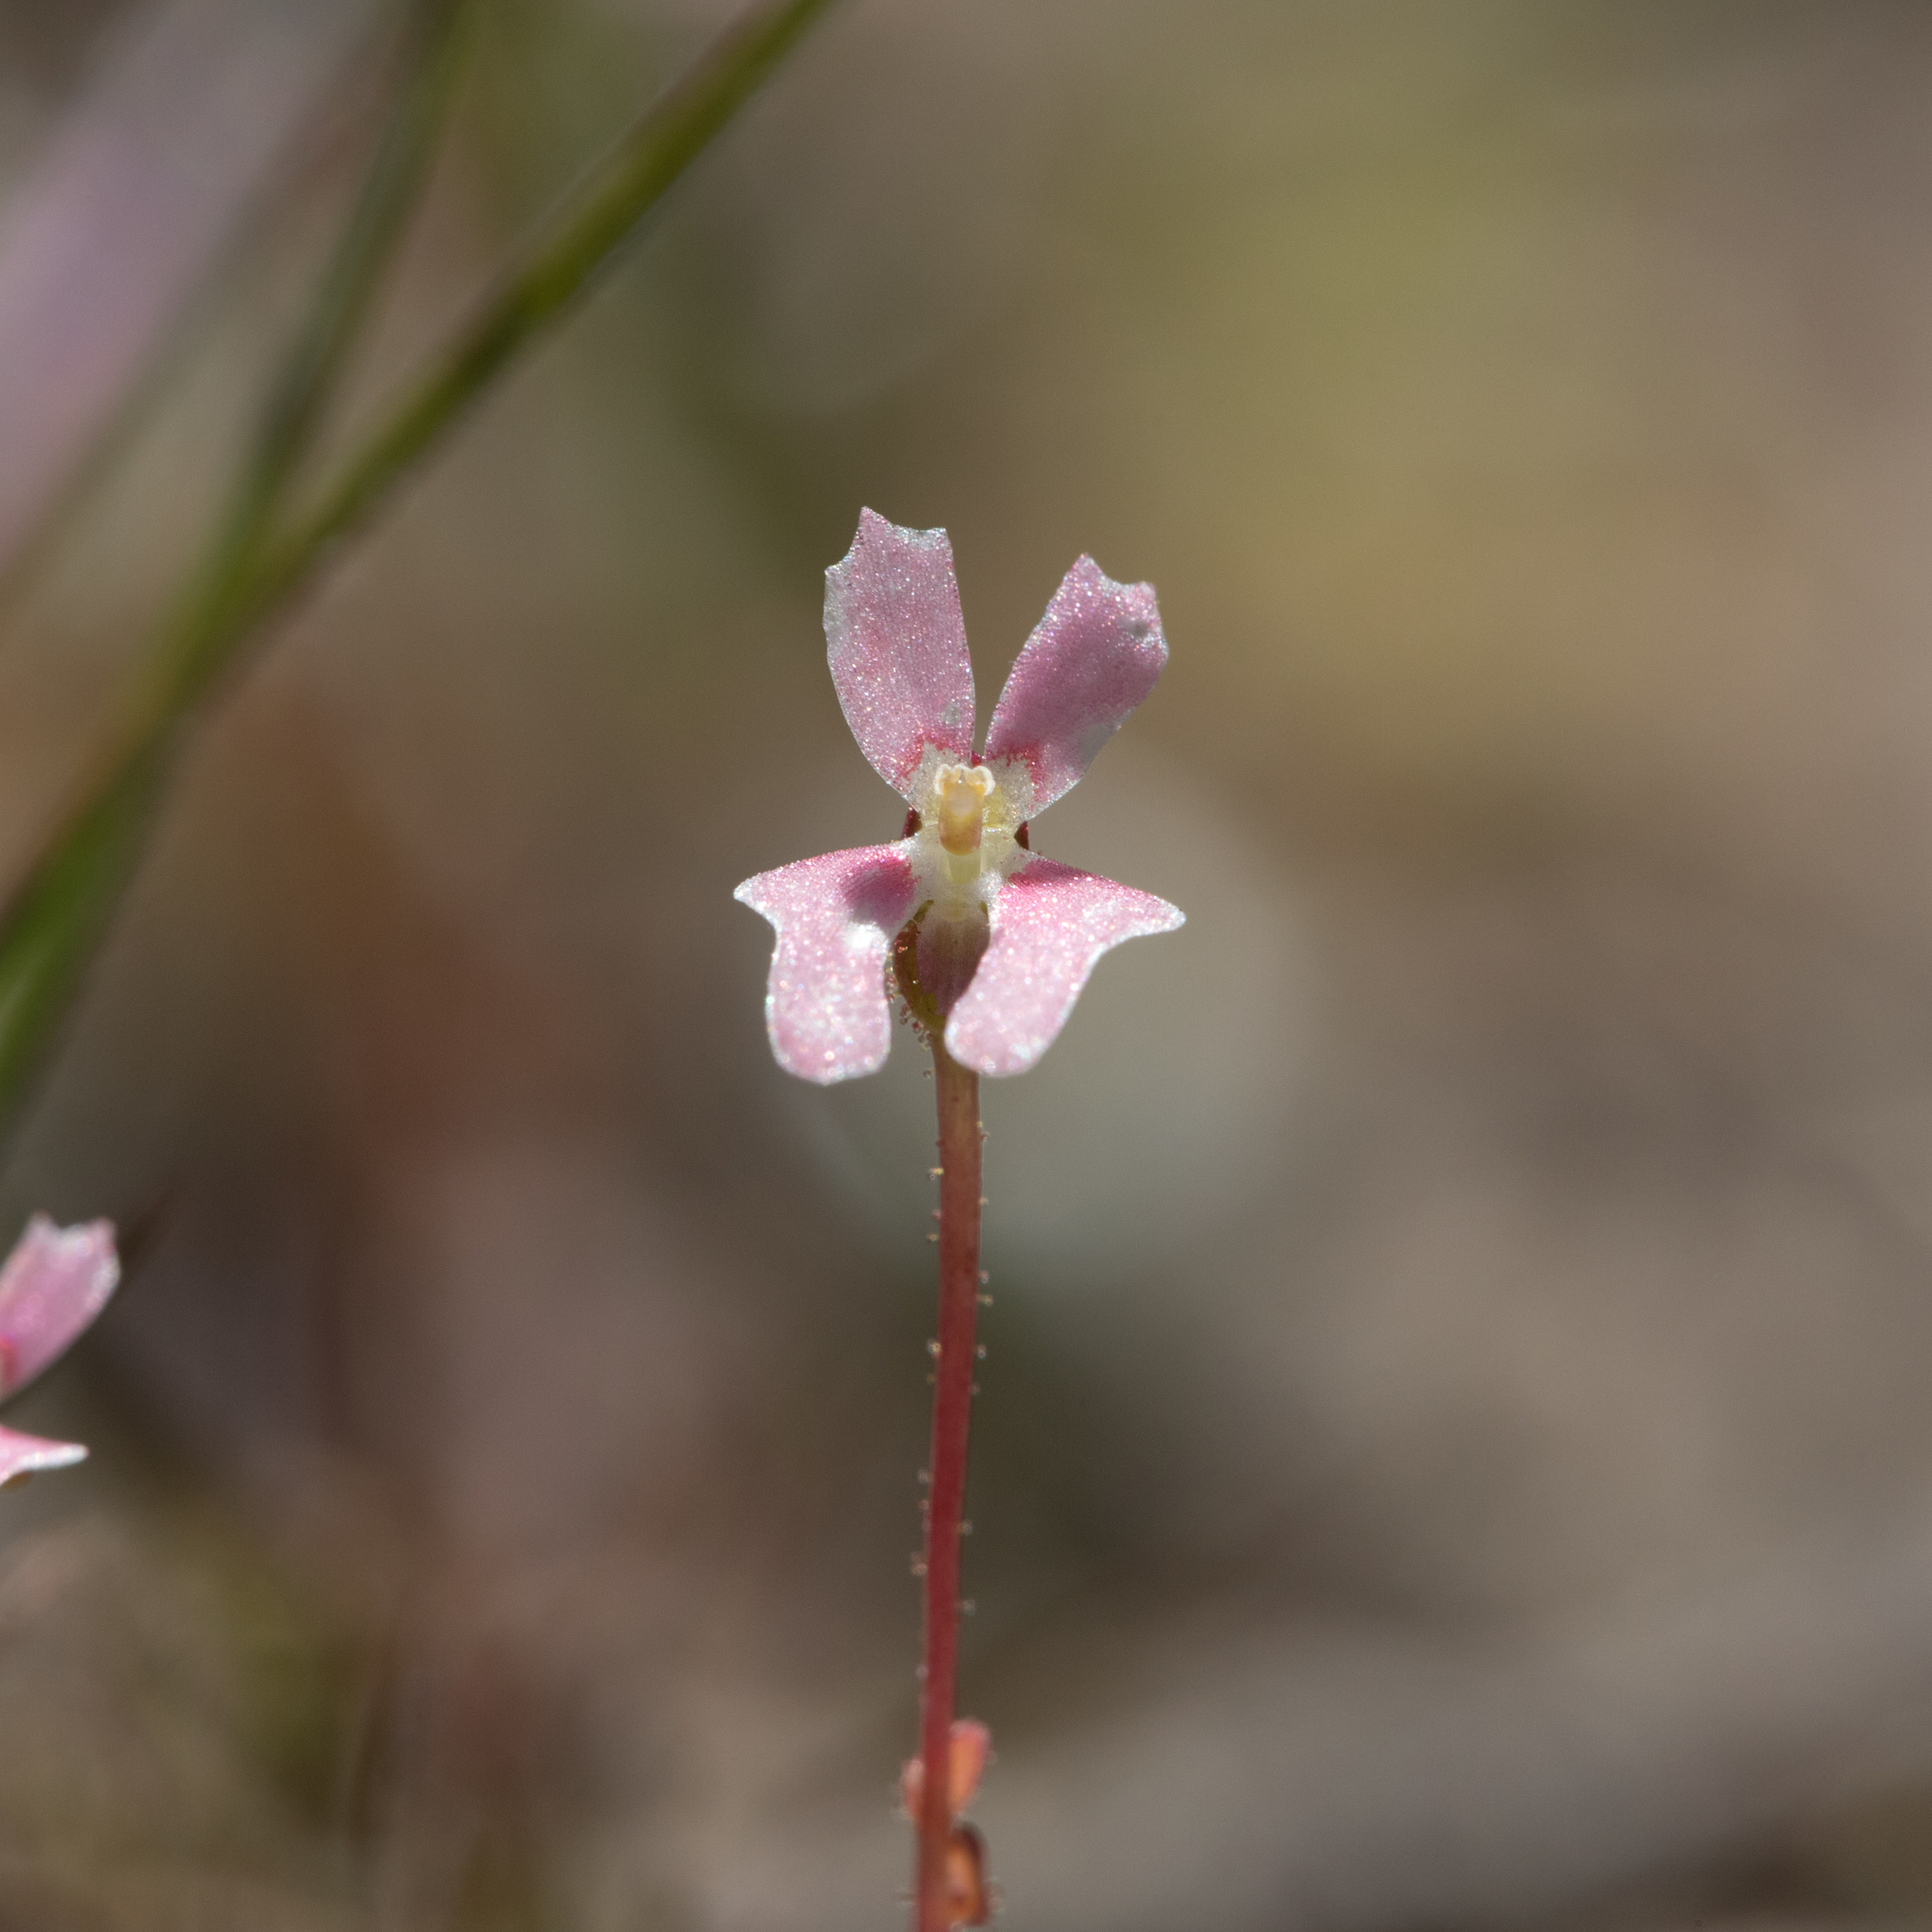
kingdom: Plantae
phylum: Tracheophyta
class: Magnoliopsida
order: Asterales
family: Stylidiaceae
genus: Stylidium
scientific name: Stylidium calcaratum
